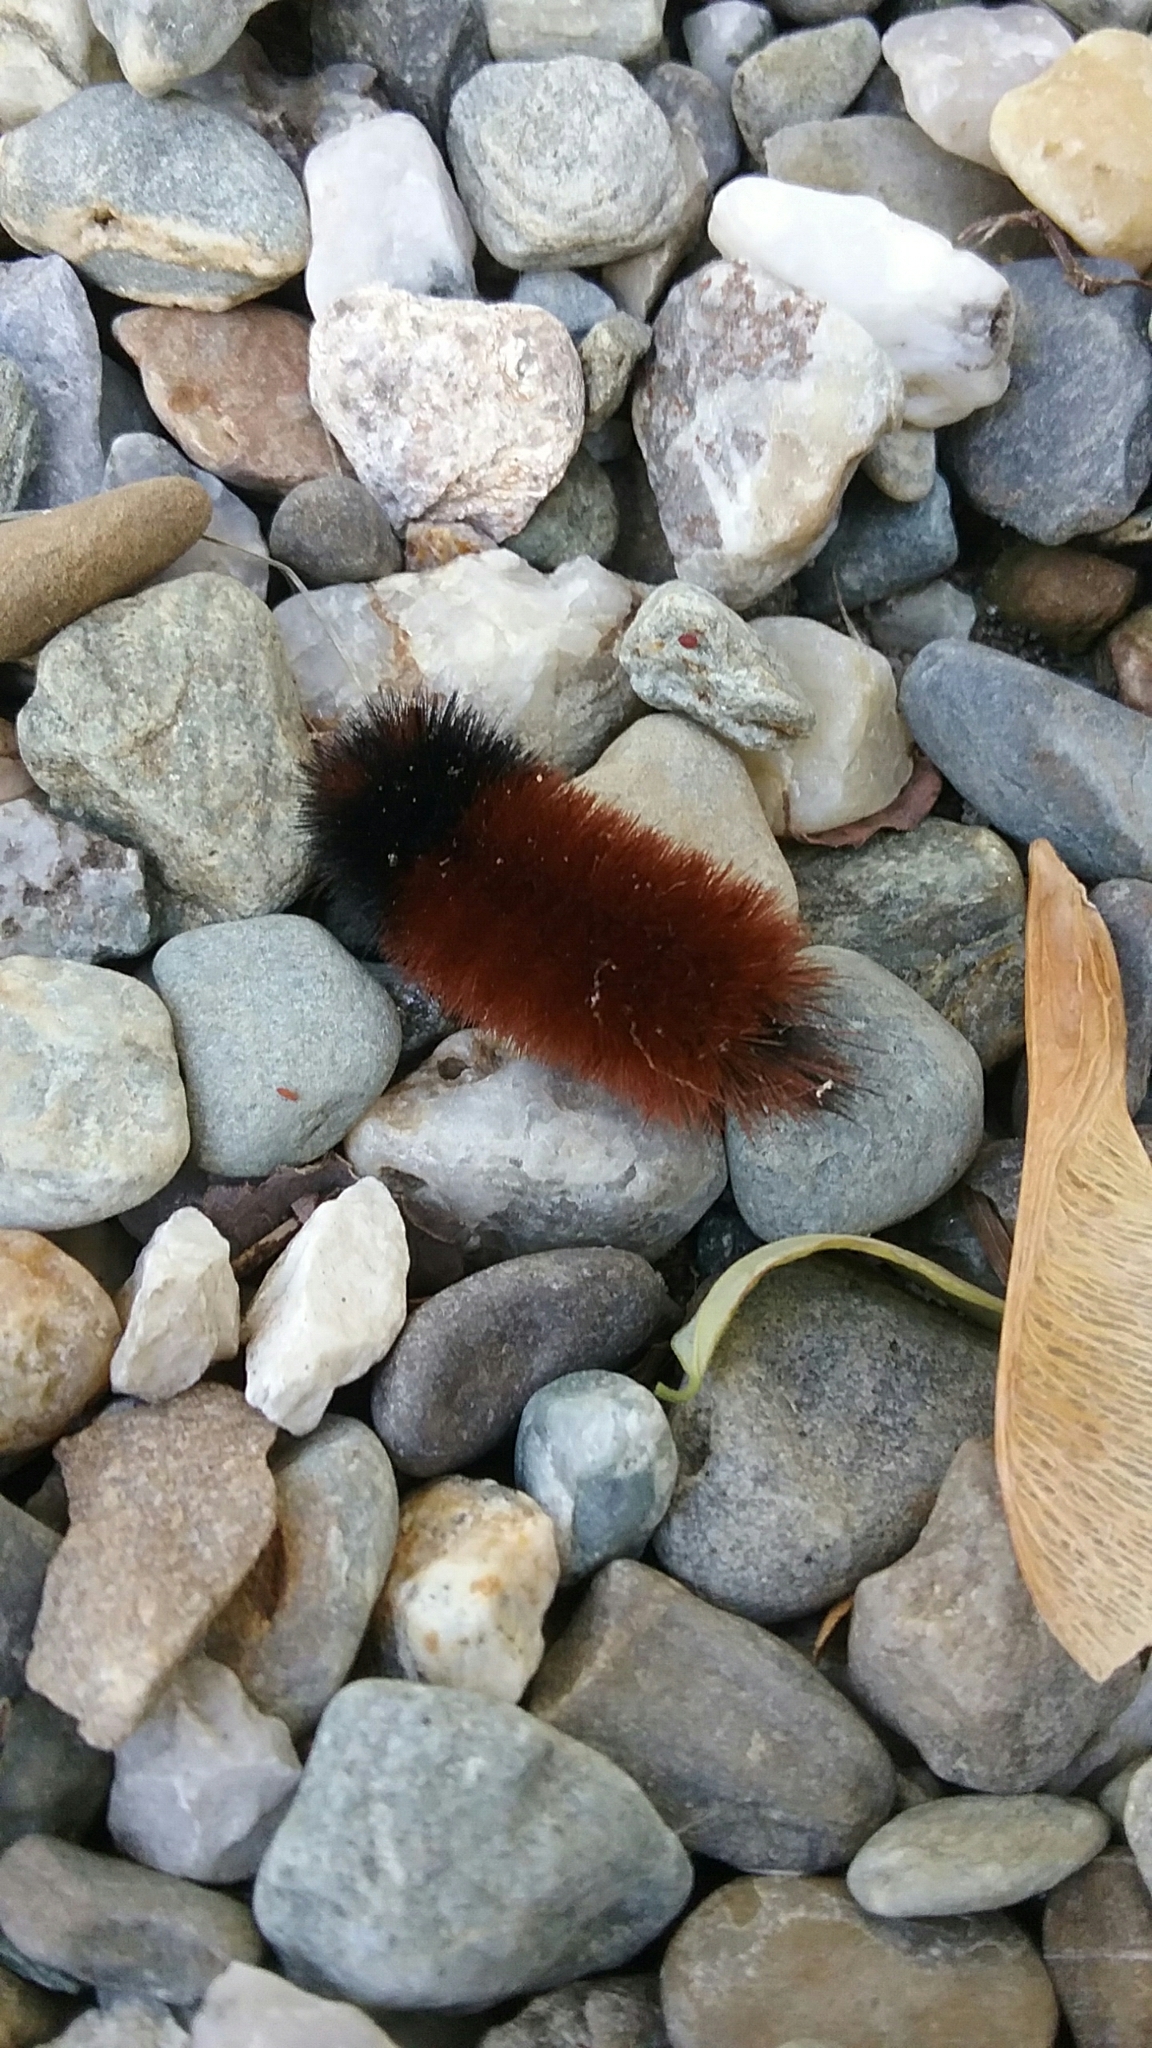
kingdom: Animalia
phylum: Arthropoda
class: Insecta
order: Lepidoptera
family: Erebidae
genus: Pyrrharctia
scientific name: Pyrrharctia isabella
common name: Isabella tiger moth
